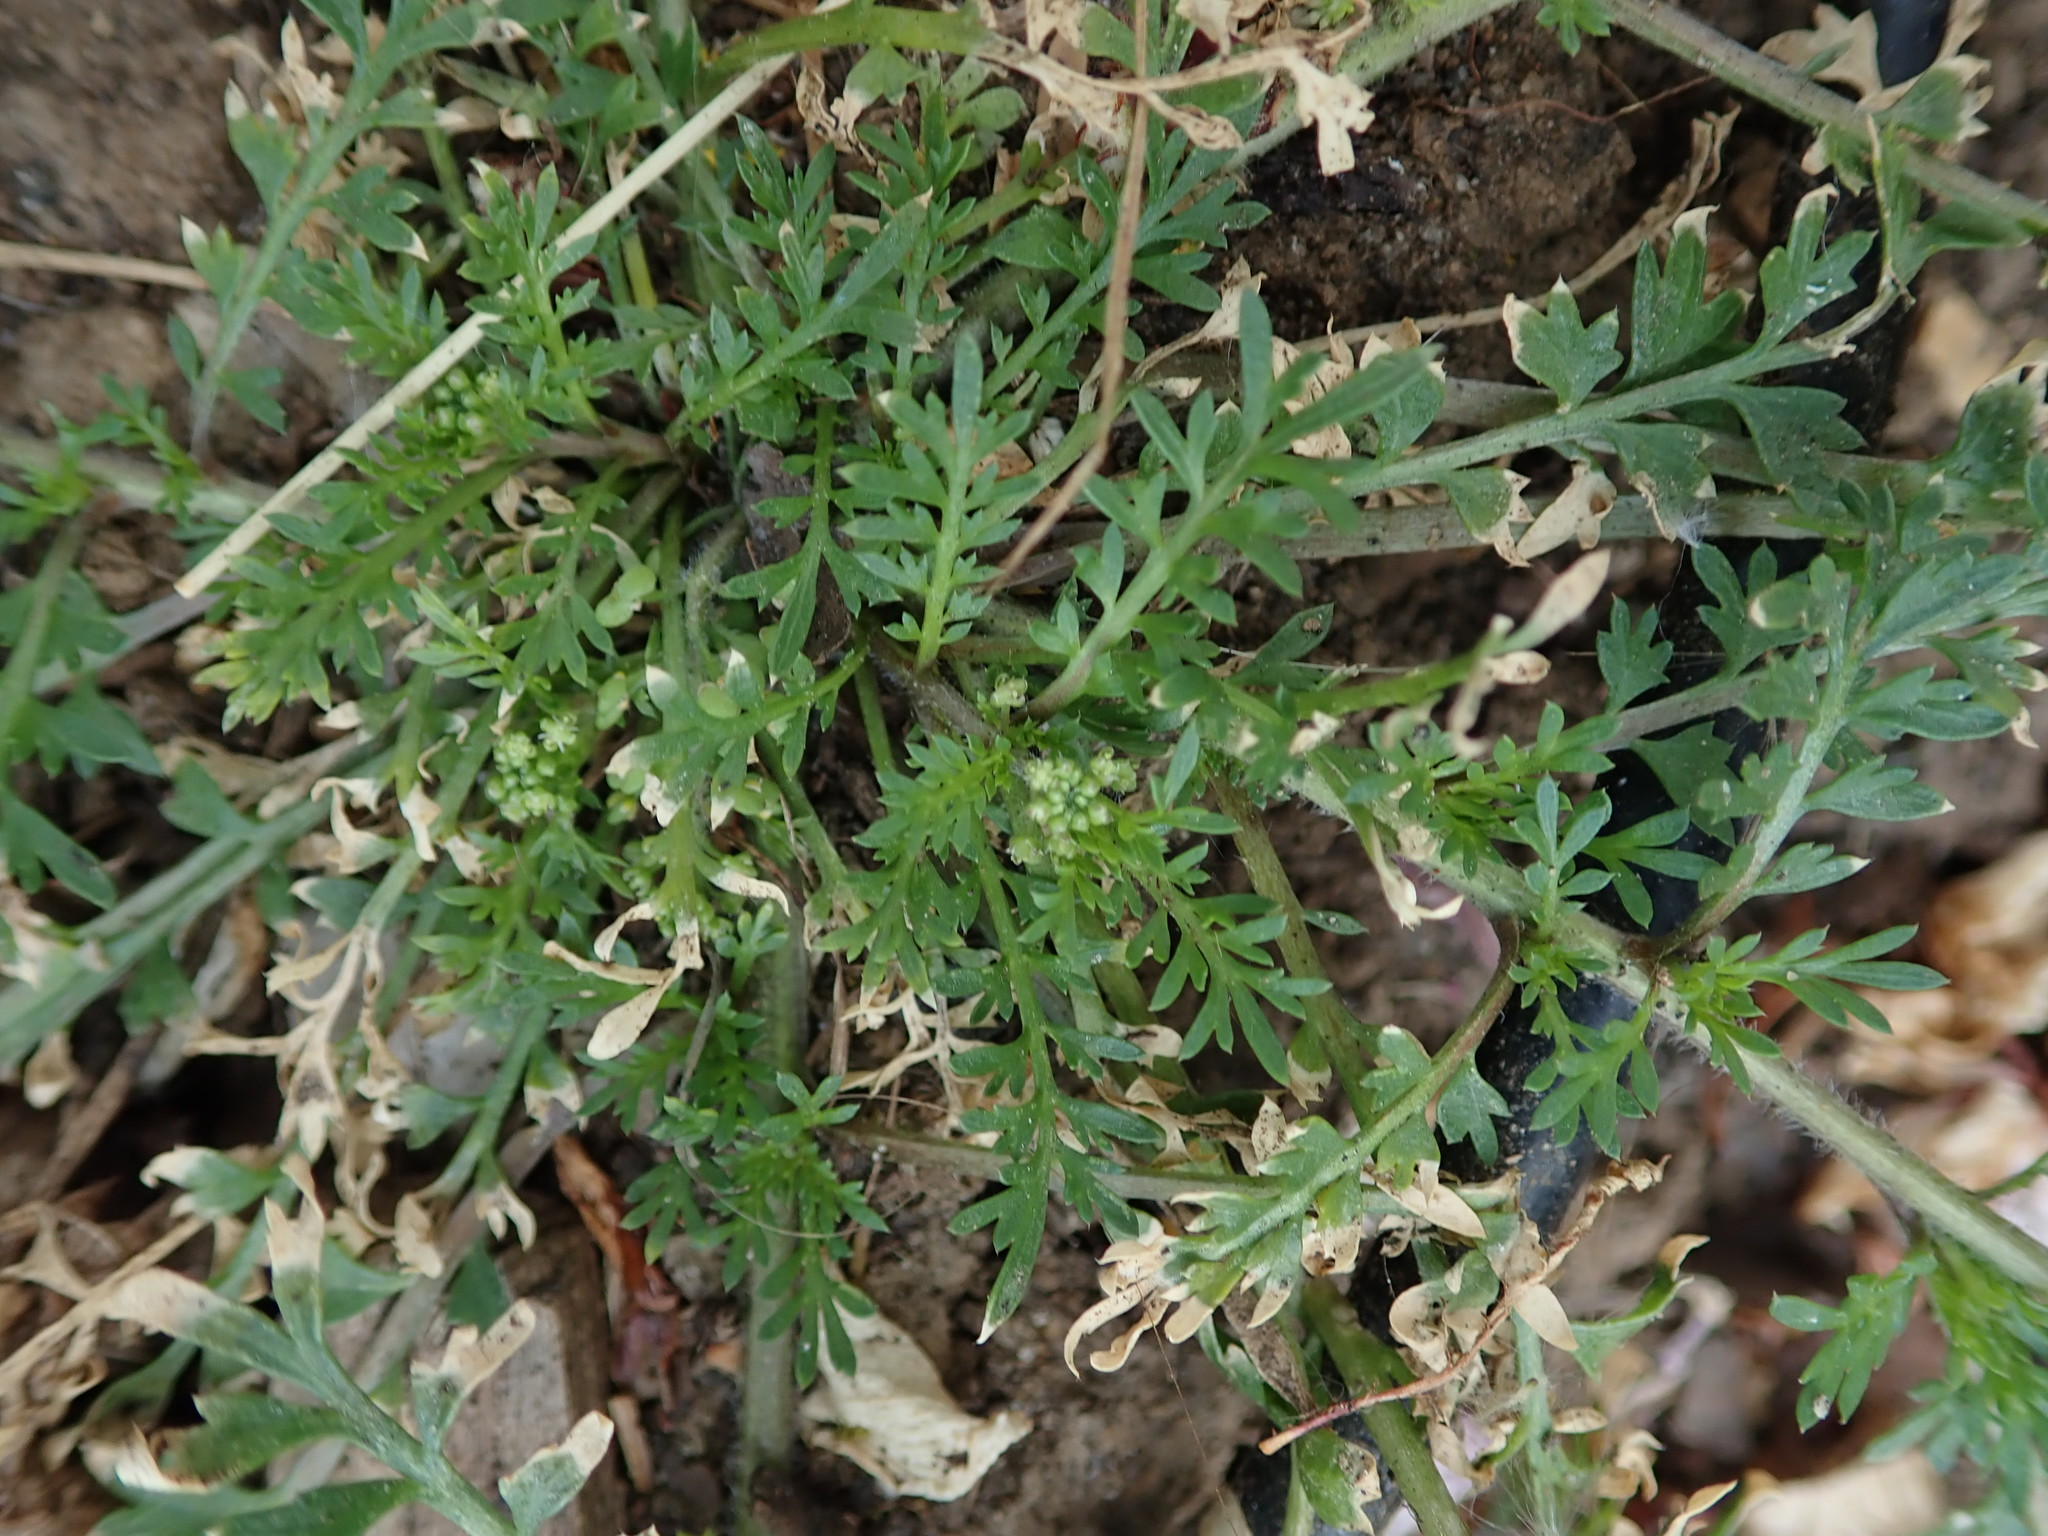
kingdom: Plantae
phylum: Tracheophyta
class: Magnoliopsida
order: Brassicales
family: Brassicaceae
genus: Lepidium
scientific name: Lepidium didymum
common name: Lesser swinecress
